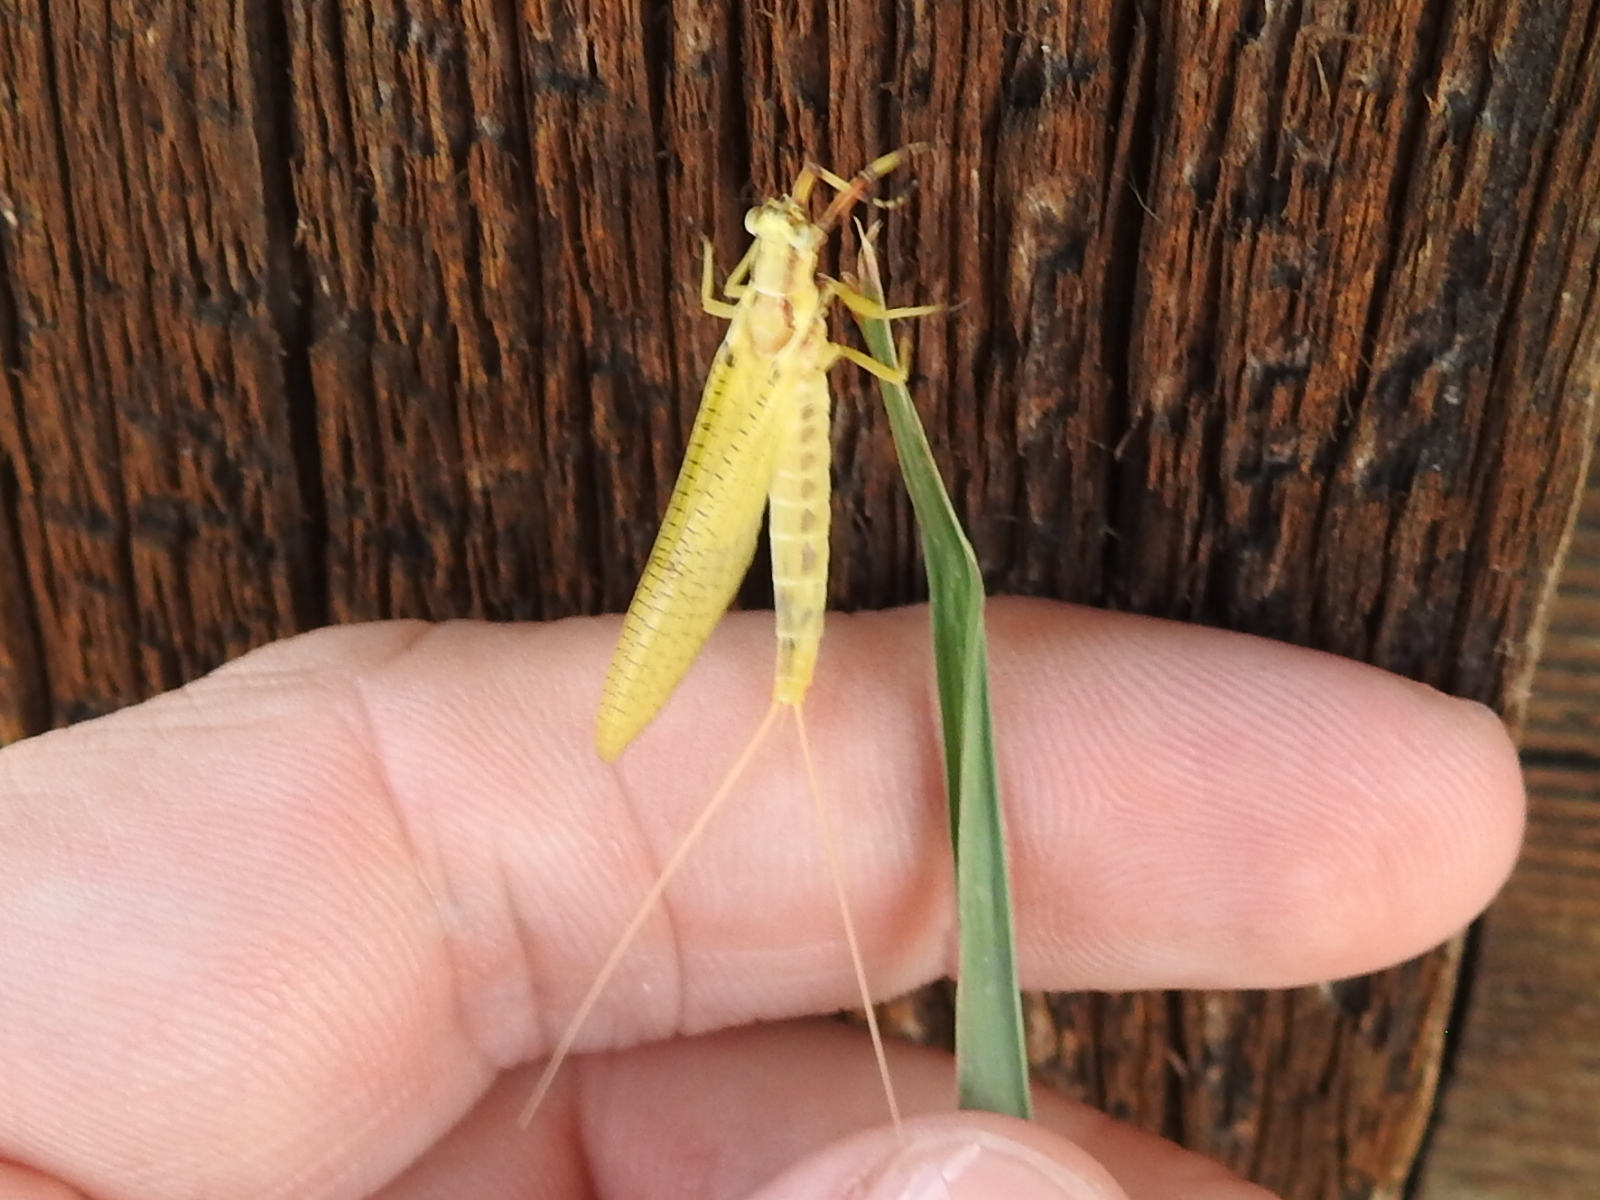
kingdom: Animalia
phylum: Arthropoda
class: Insecta
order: Ephemeroptera
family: Ephemeridae
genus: Hexagenia
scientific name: Hexagenia limbata
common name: Giant mayfly
